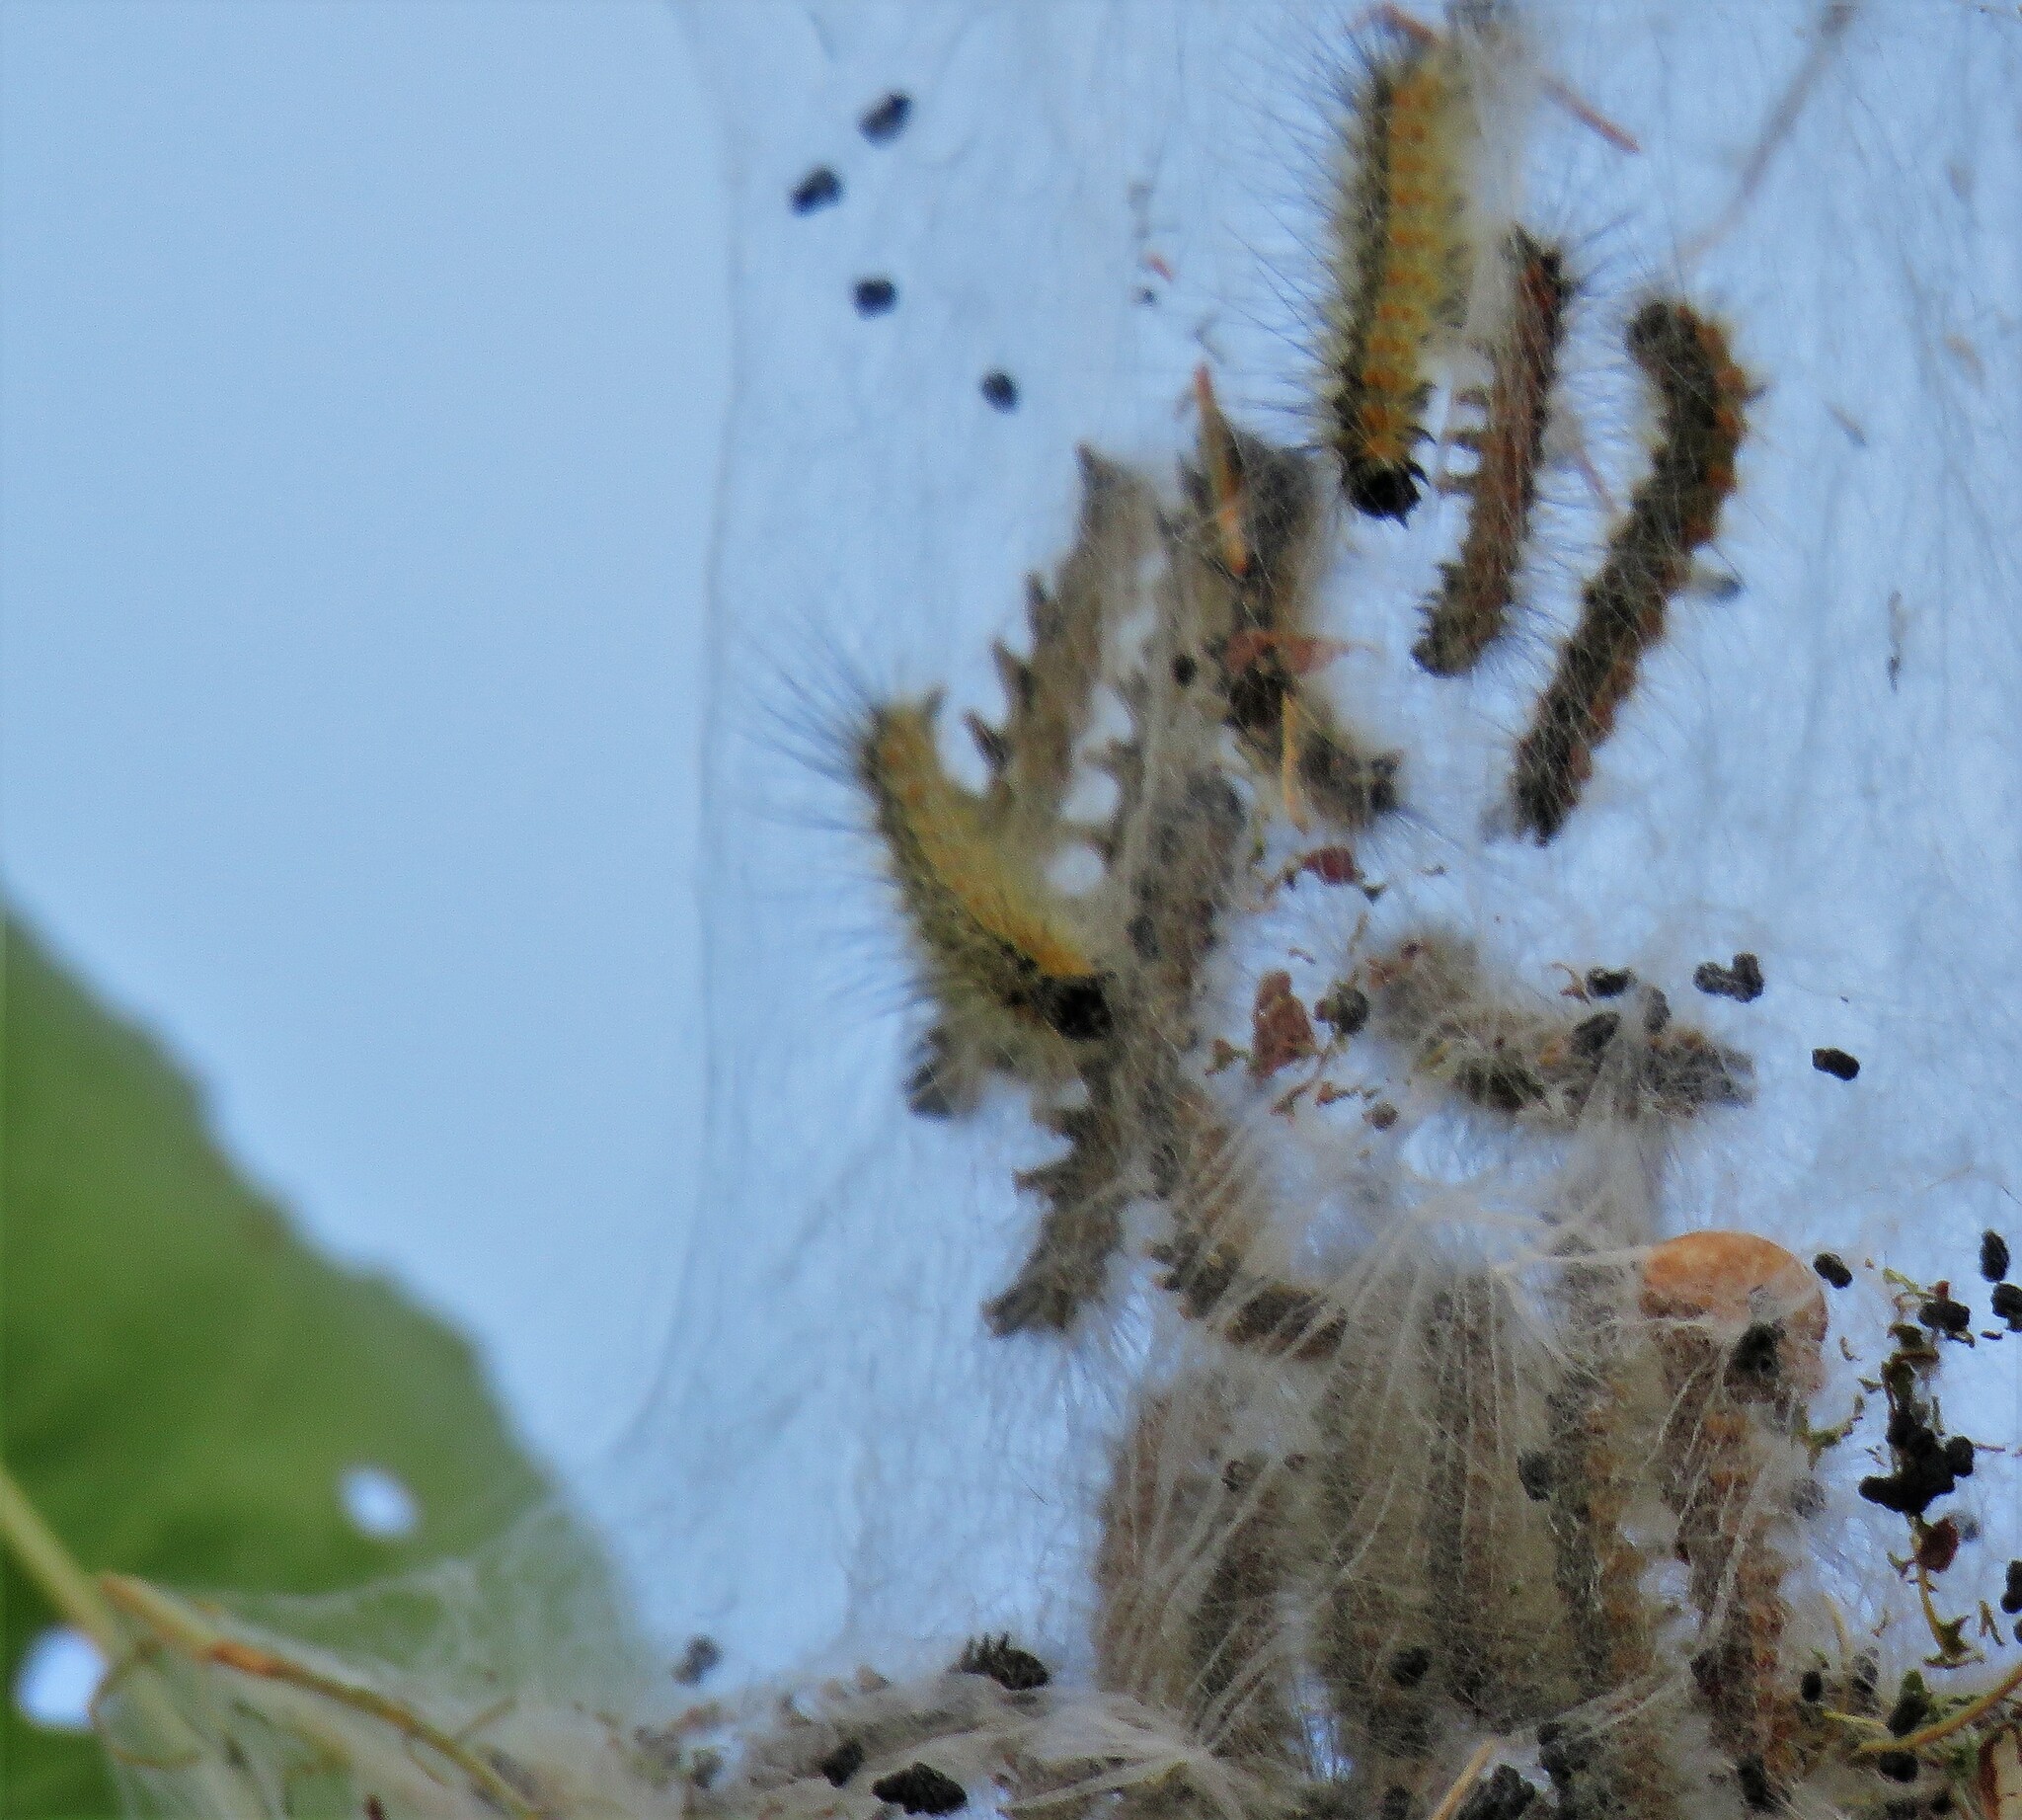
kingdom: Animalia
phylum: Arthropoda
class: Insecta
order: Lepidoptera
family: Erebidae
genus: Hyphantria
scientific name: Hyphantria cunea
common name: American white moth
